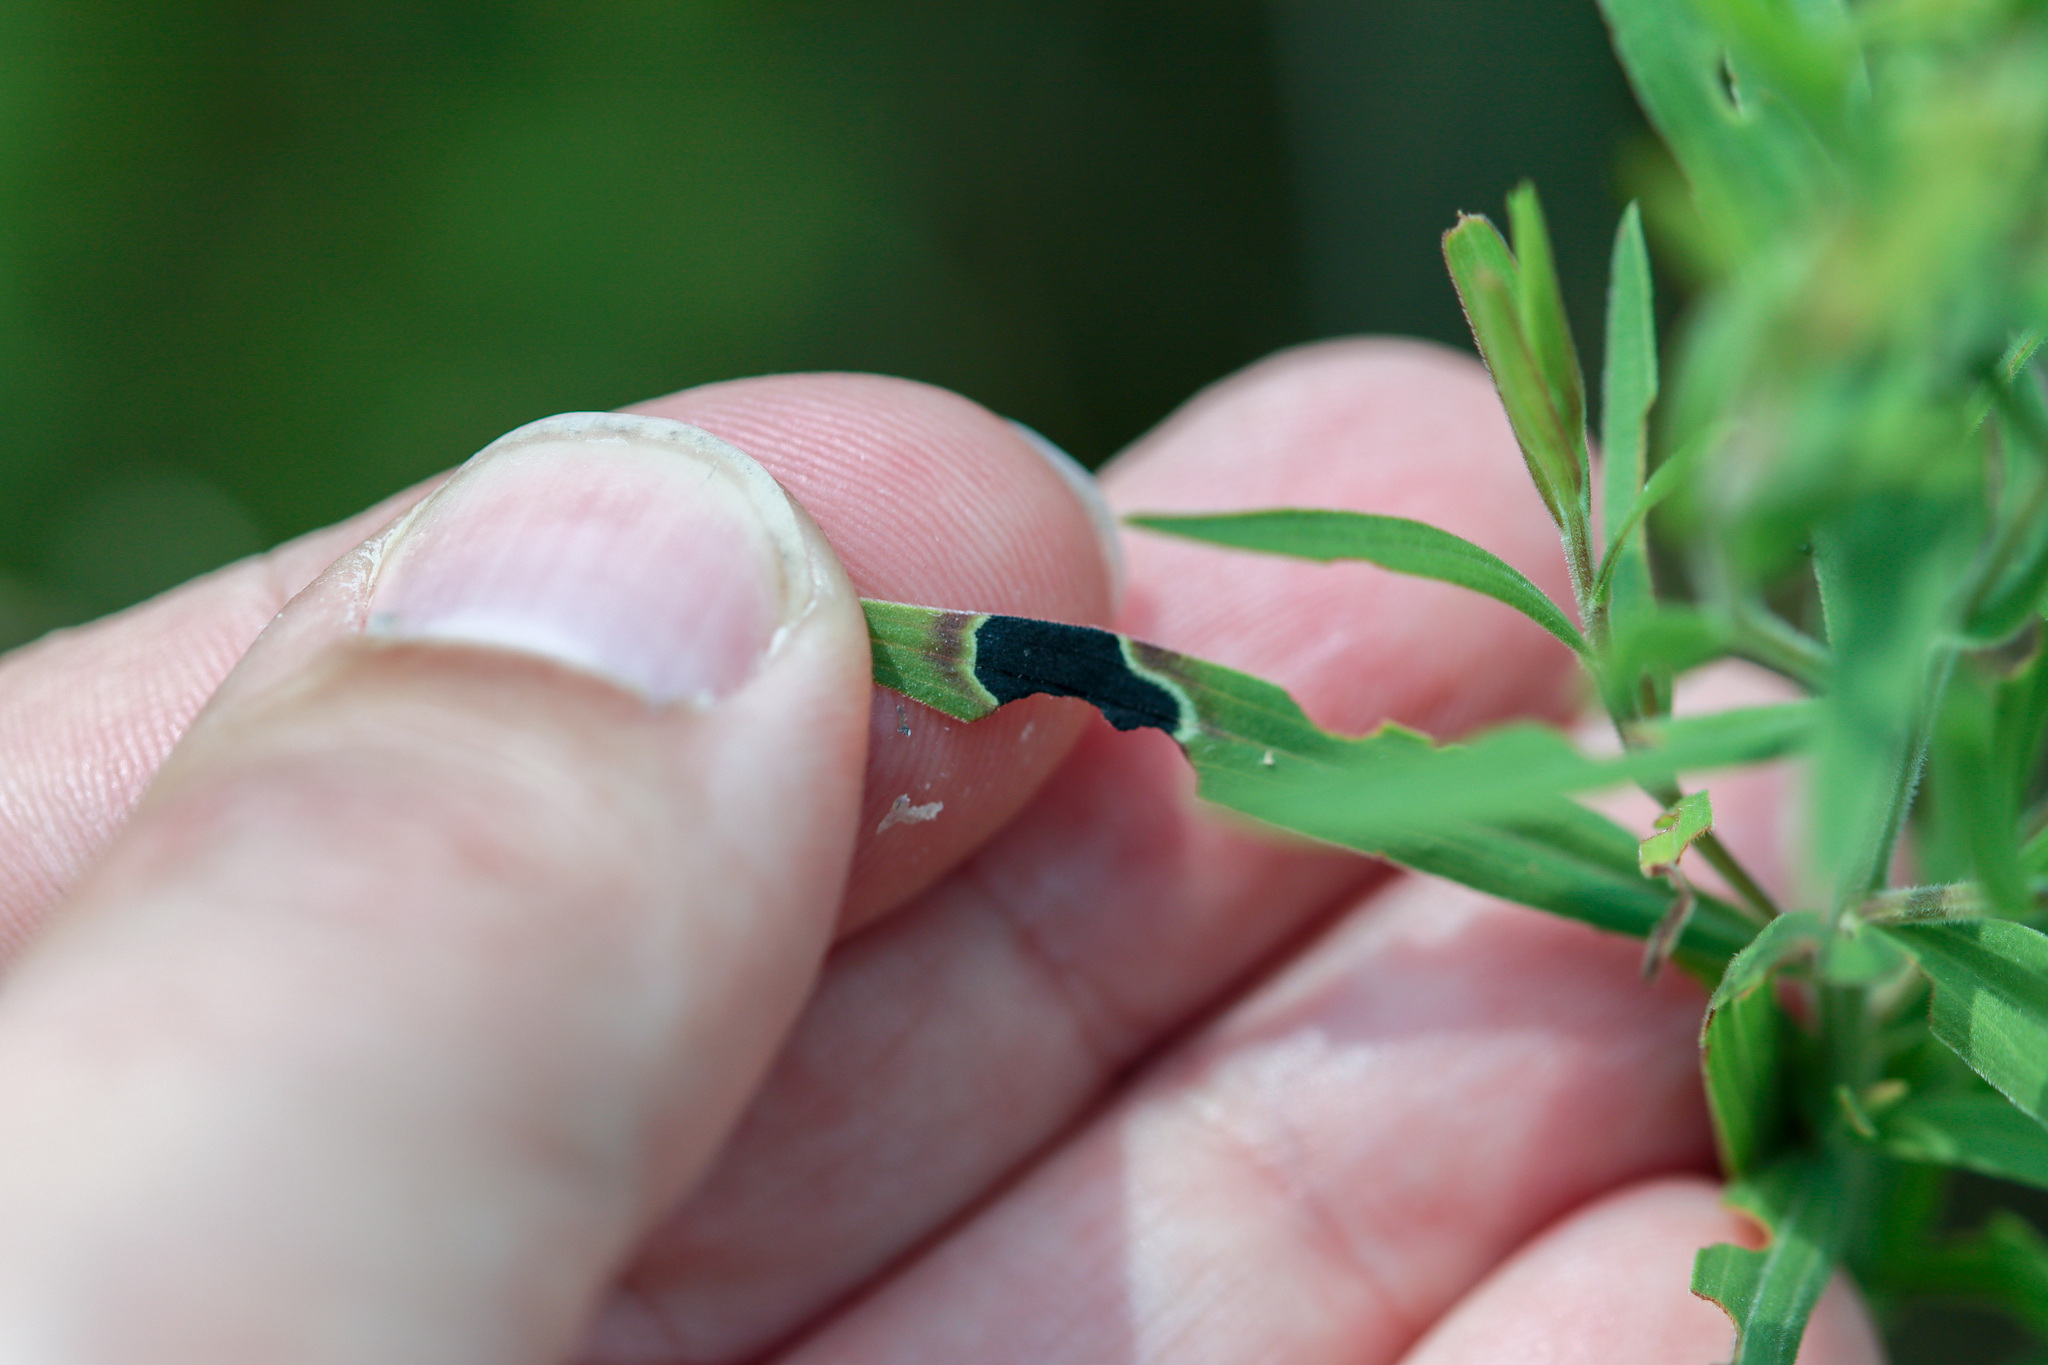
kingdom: Animalia
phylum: Arthropoda
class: Insecta
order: Diptera
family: Cecidomyiidae
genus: Asteromyia
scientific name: Asteromyia euthamiae
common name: Euthamia leaf gall midge
